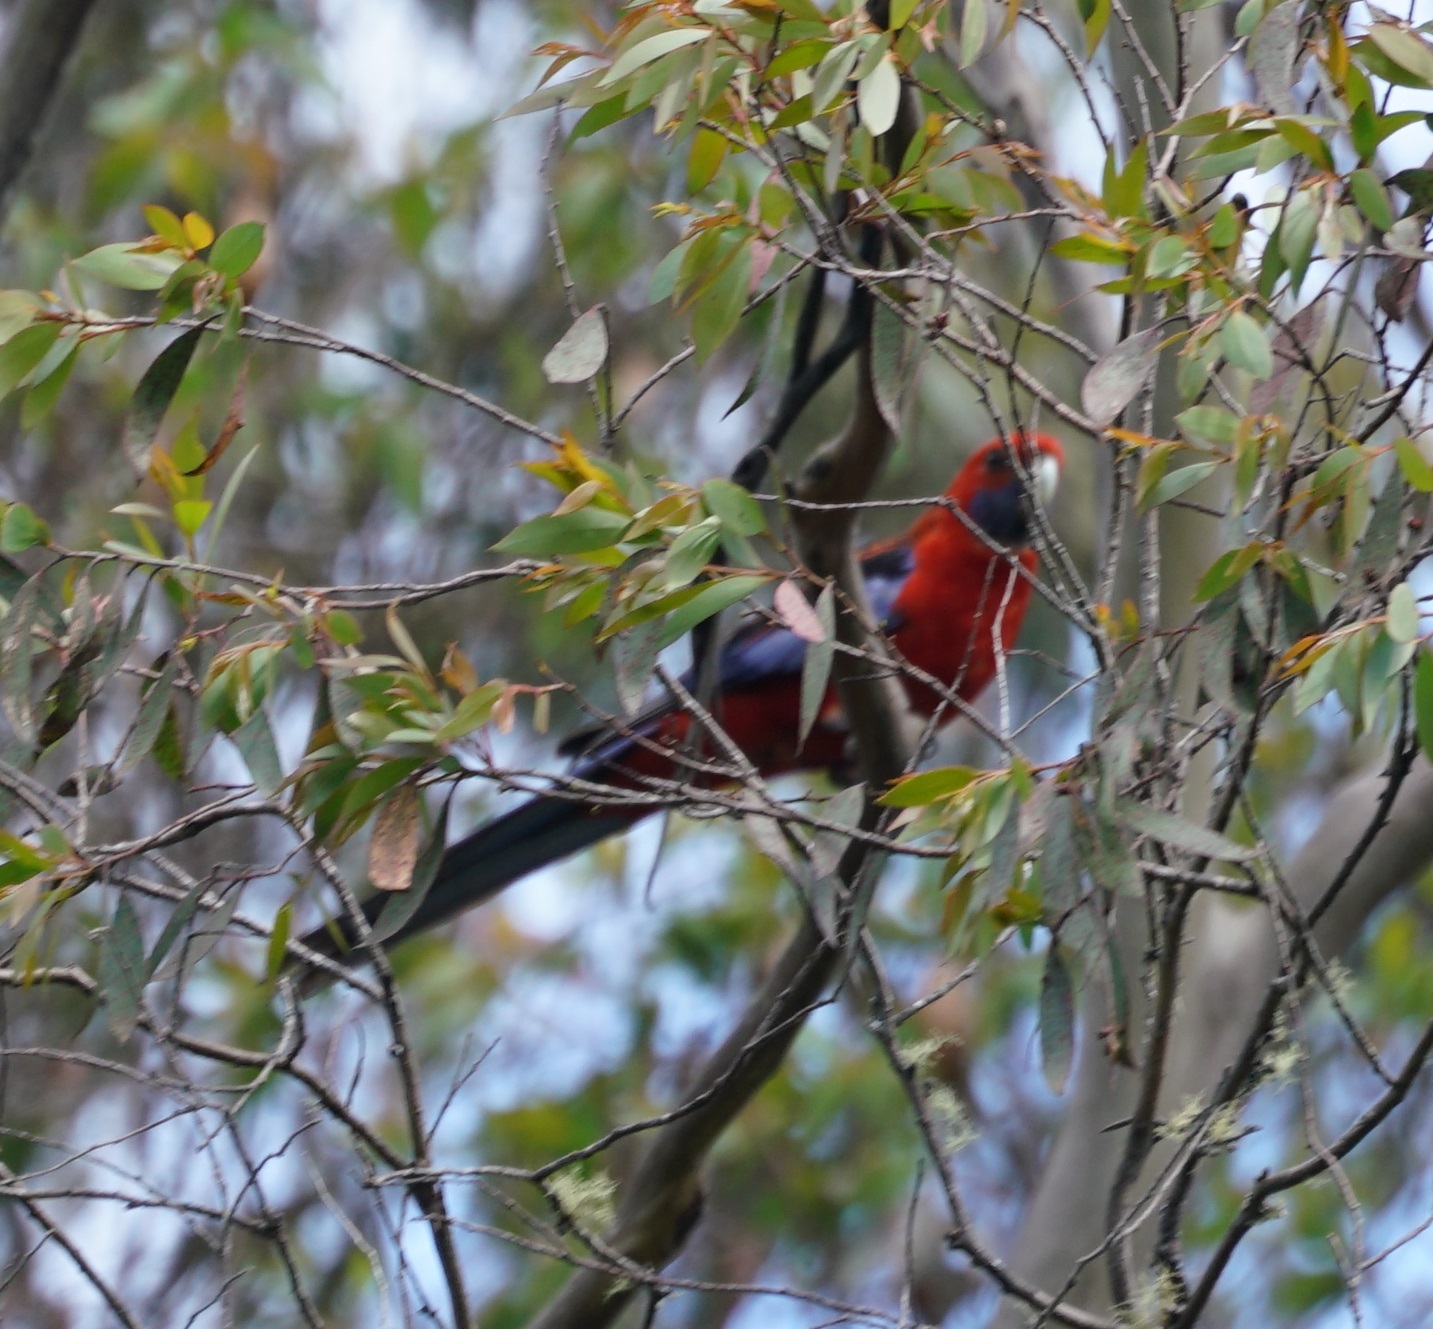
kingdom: Animalia
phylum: Chordata
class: Aves
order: Psittaciformes
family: Psittacidae
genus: Platycercus
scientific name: Platycercus elegans
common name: Crimson rosella
